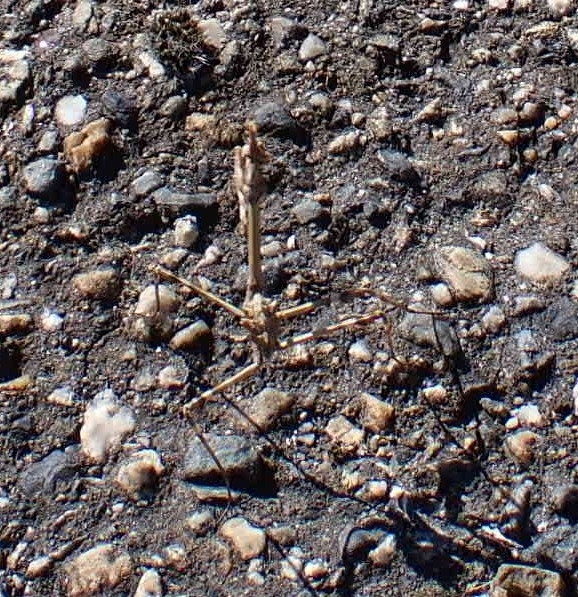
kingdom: Animalia
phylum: Arthropoda
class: Insecta
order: Mantodea
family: Empusidae
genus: Empusa
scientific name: Empusa pennata
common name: Conehead mantis
